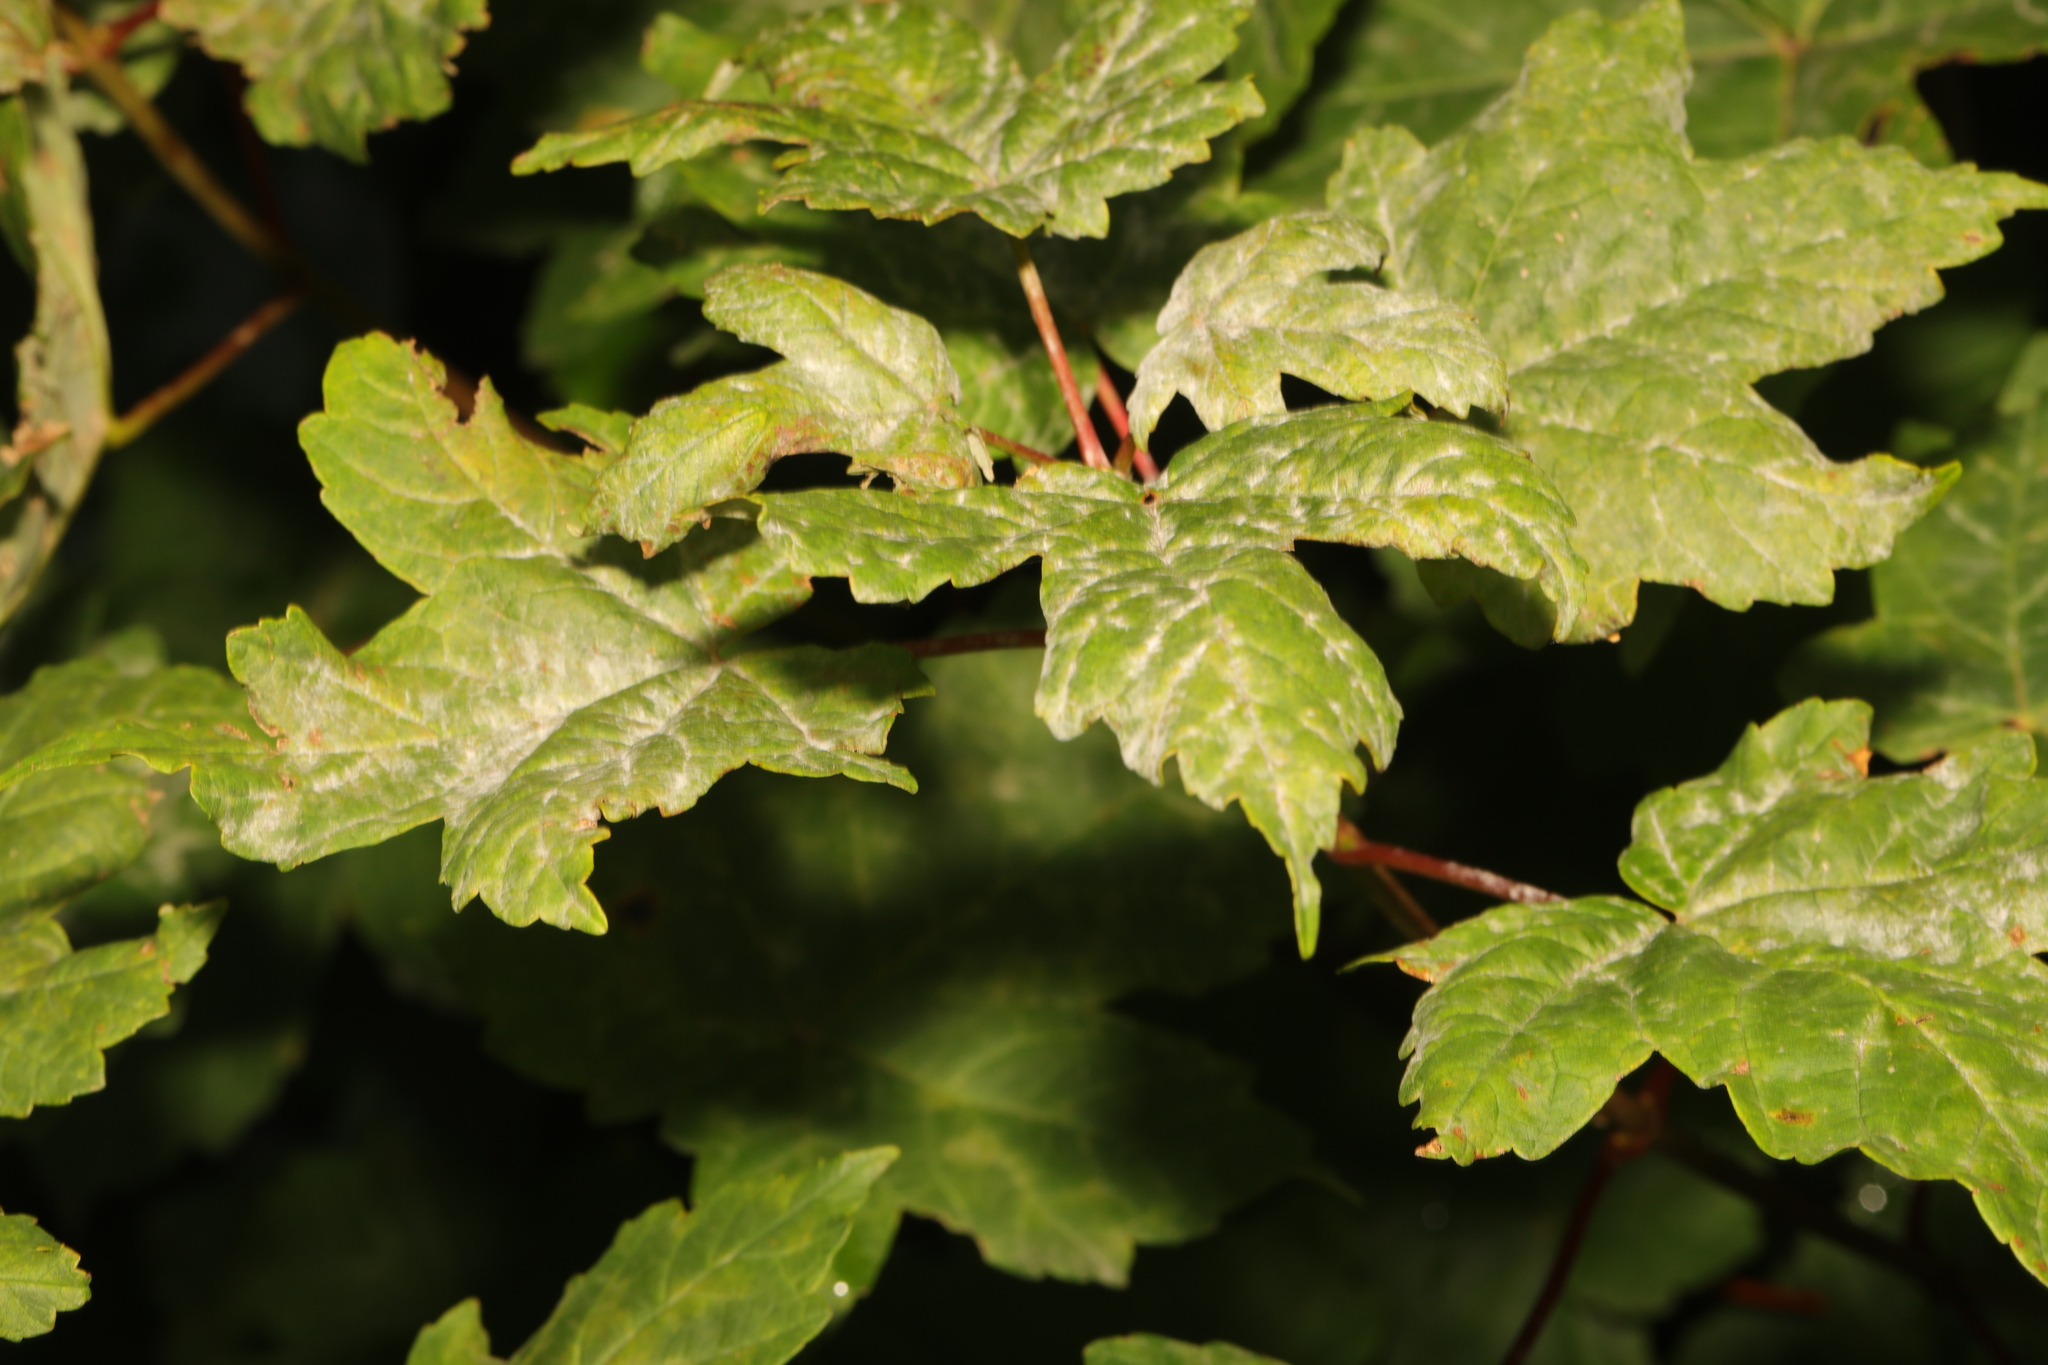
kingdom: Plantae
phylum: Tracheophyta
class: Magnoliopsida
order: Sapindales
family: Sapindaceae
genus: Acer
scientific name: Acer pseudoplatanus
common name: Sycamore
